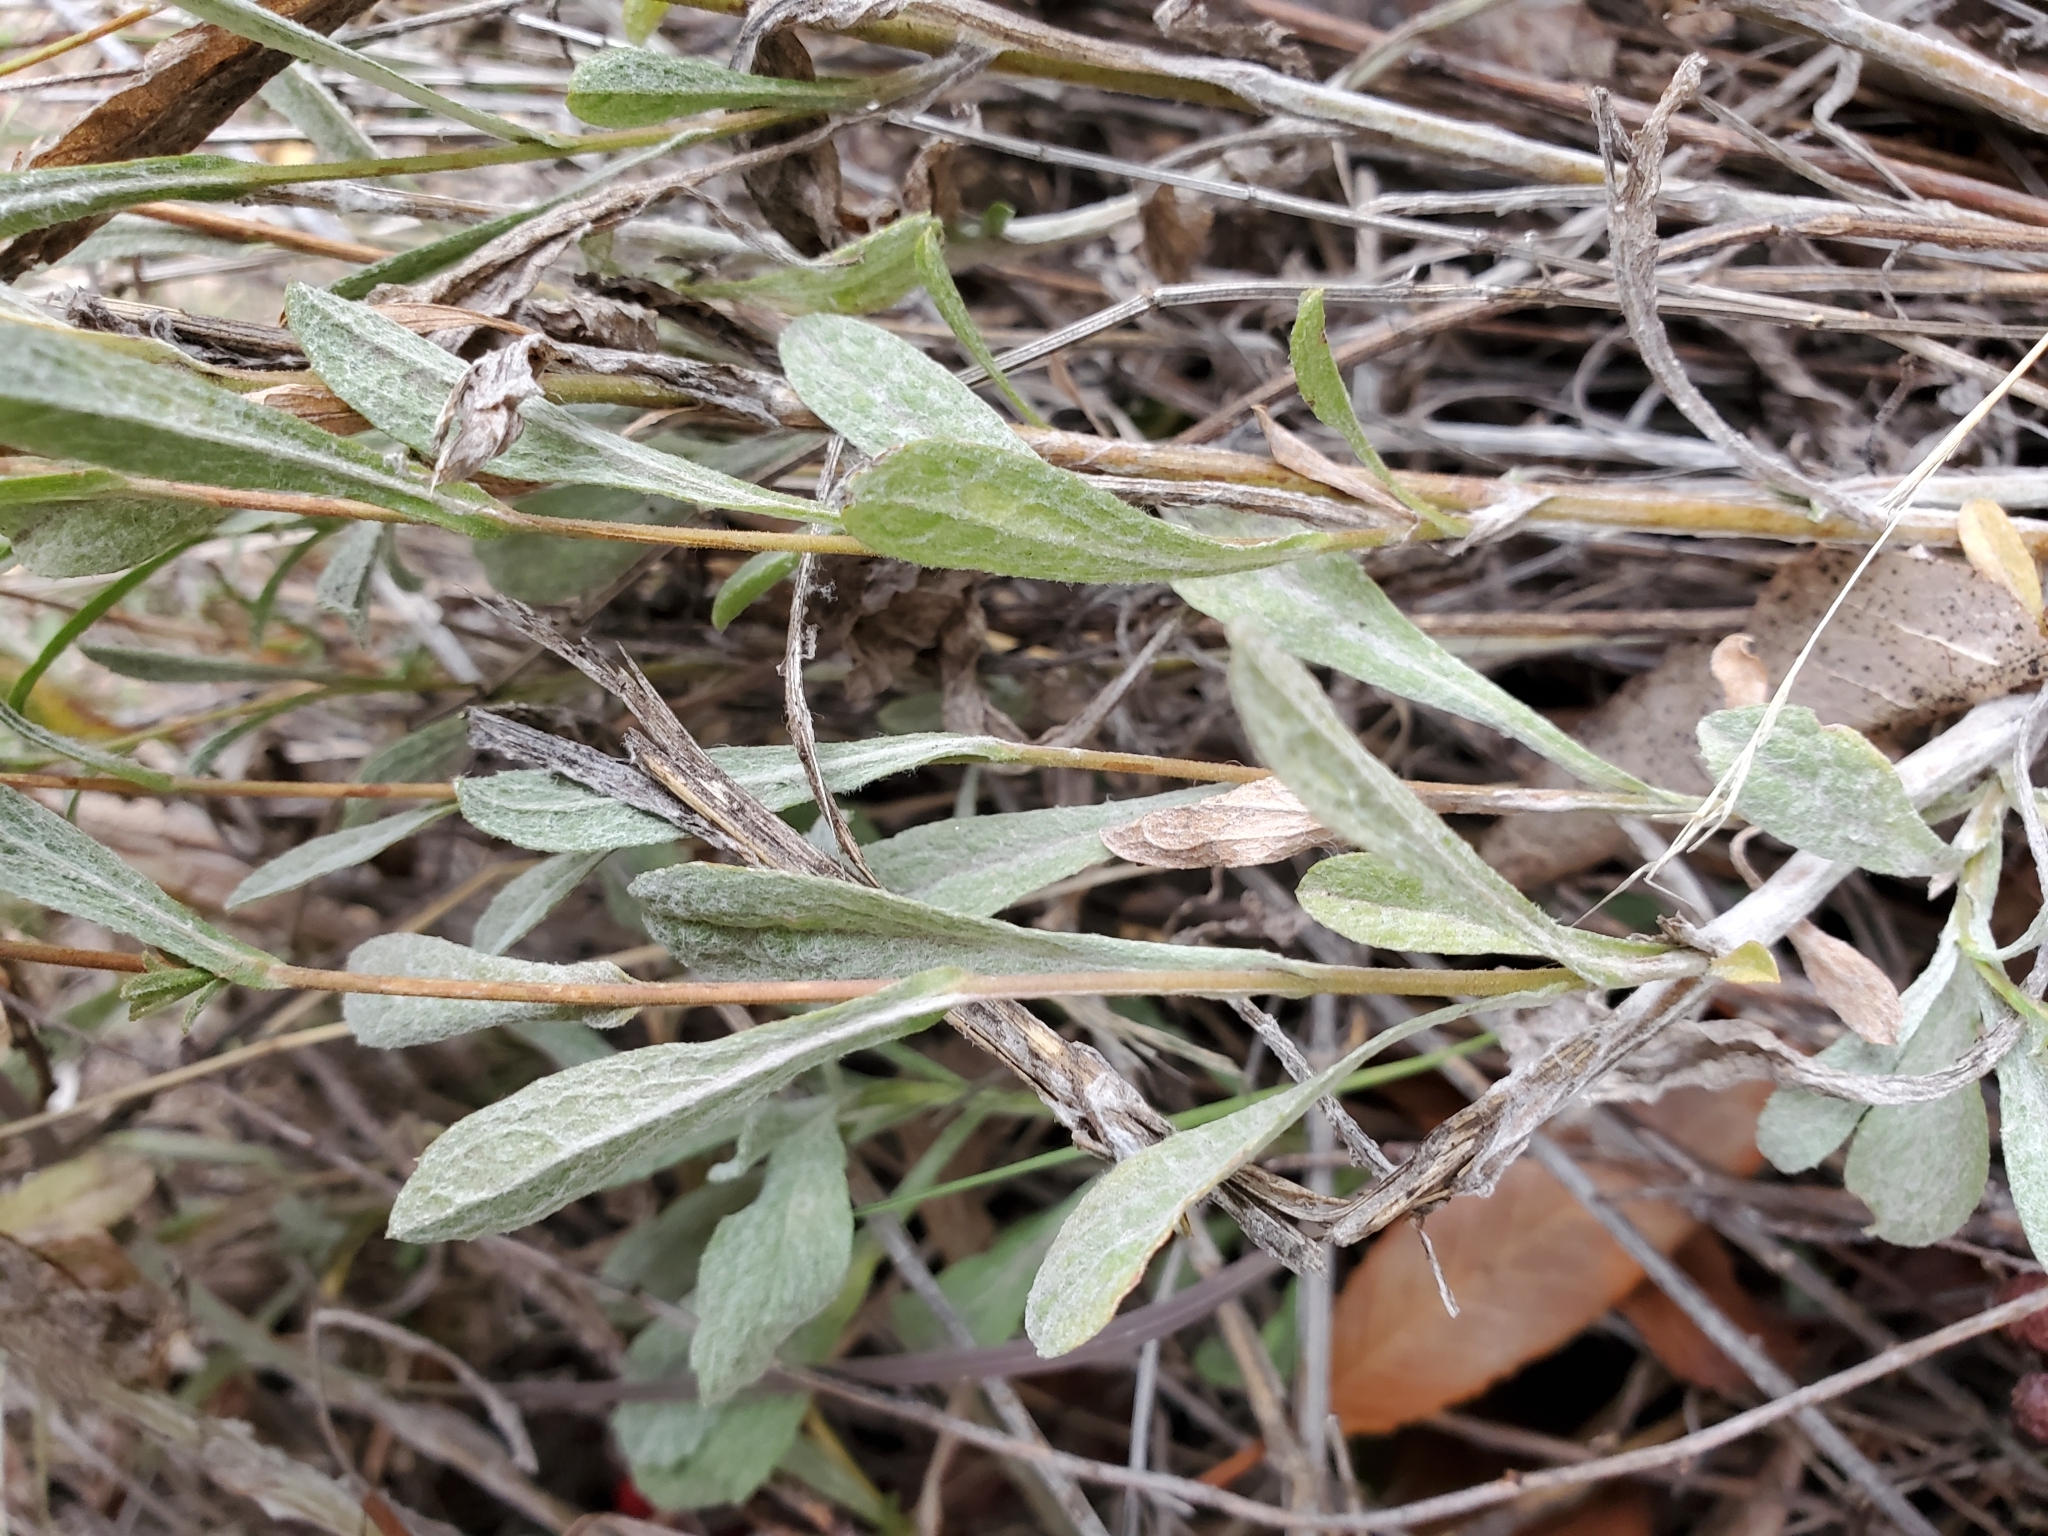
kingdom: Plantae
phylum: Tracheophyta
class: Magnoliopsida
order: Asterales
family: Asteraceae
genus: Corethrogyne
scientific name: Corethrogyne filaginifolia
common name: Sand-aster
